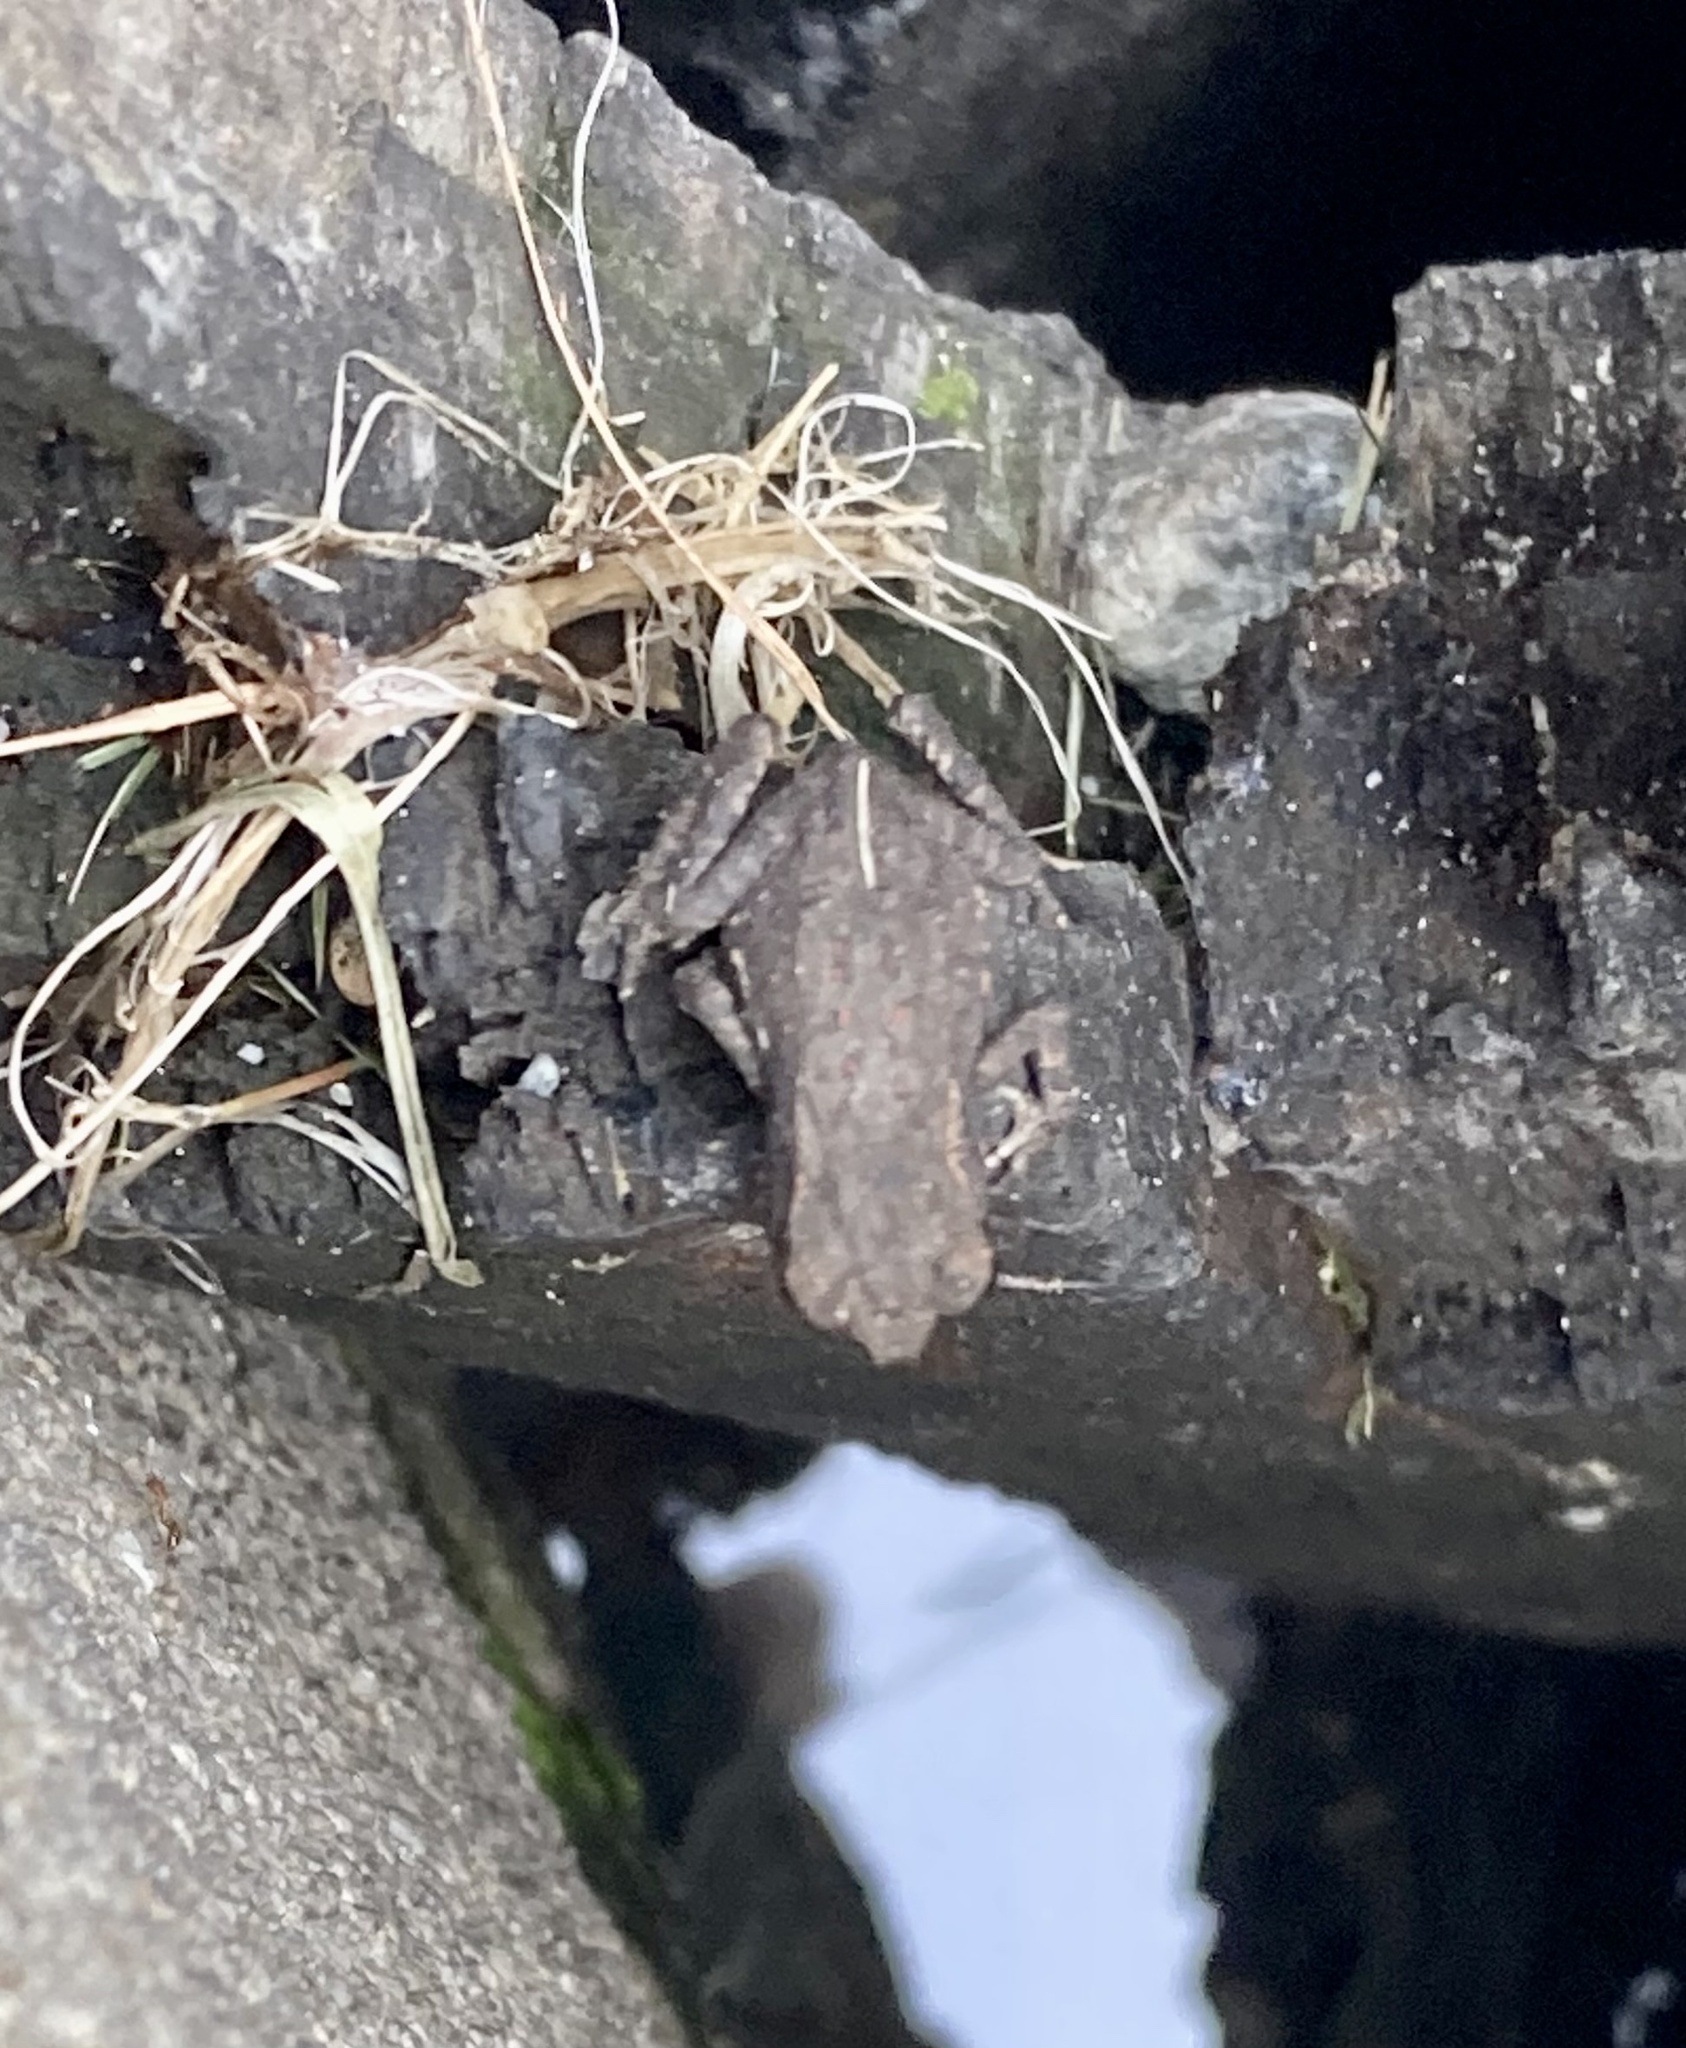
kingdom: Animalia
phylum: Chordata
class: Amphibia
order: Anura
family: Bufonidae
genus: Phrynoidis
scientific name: Phrynoidis asper
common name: Asian giant toad
